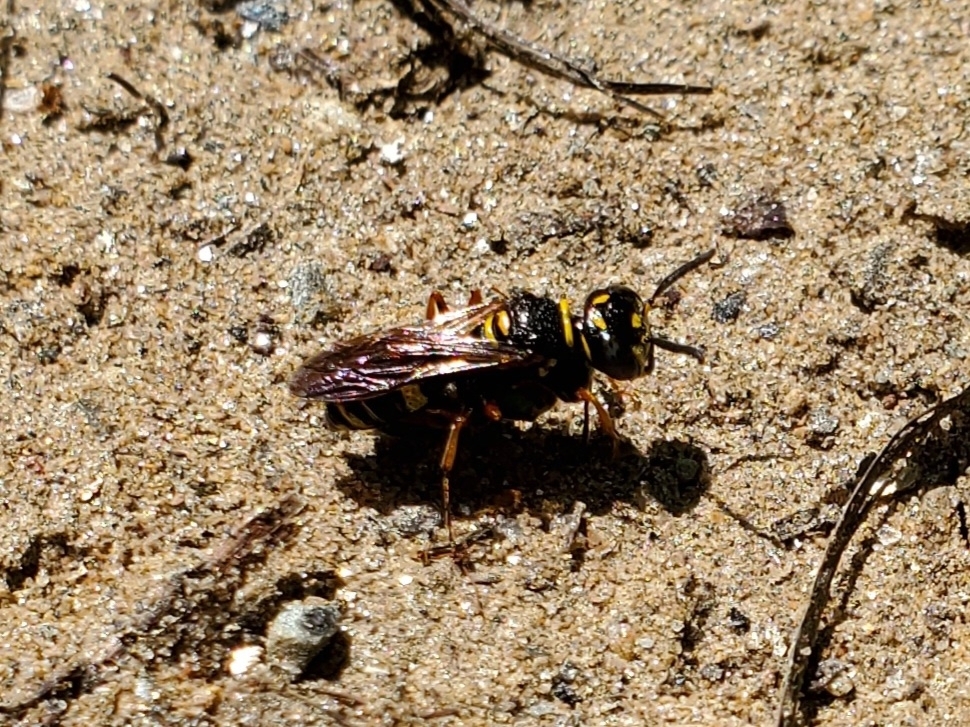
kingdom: Animalia
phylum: Arthropoda
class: Insecta
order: Hymenoptera
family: Crabronidae
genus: Philanthus
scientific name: Philanthus gibbosus
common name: Humped beewolf
